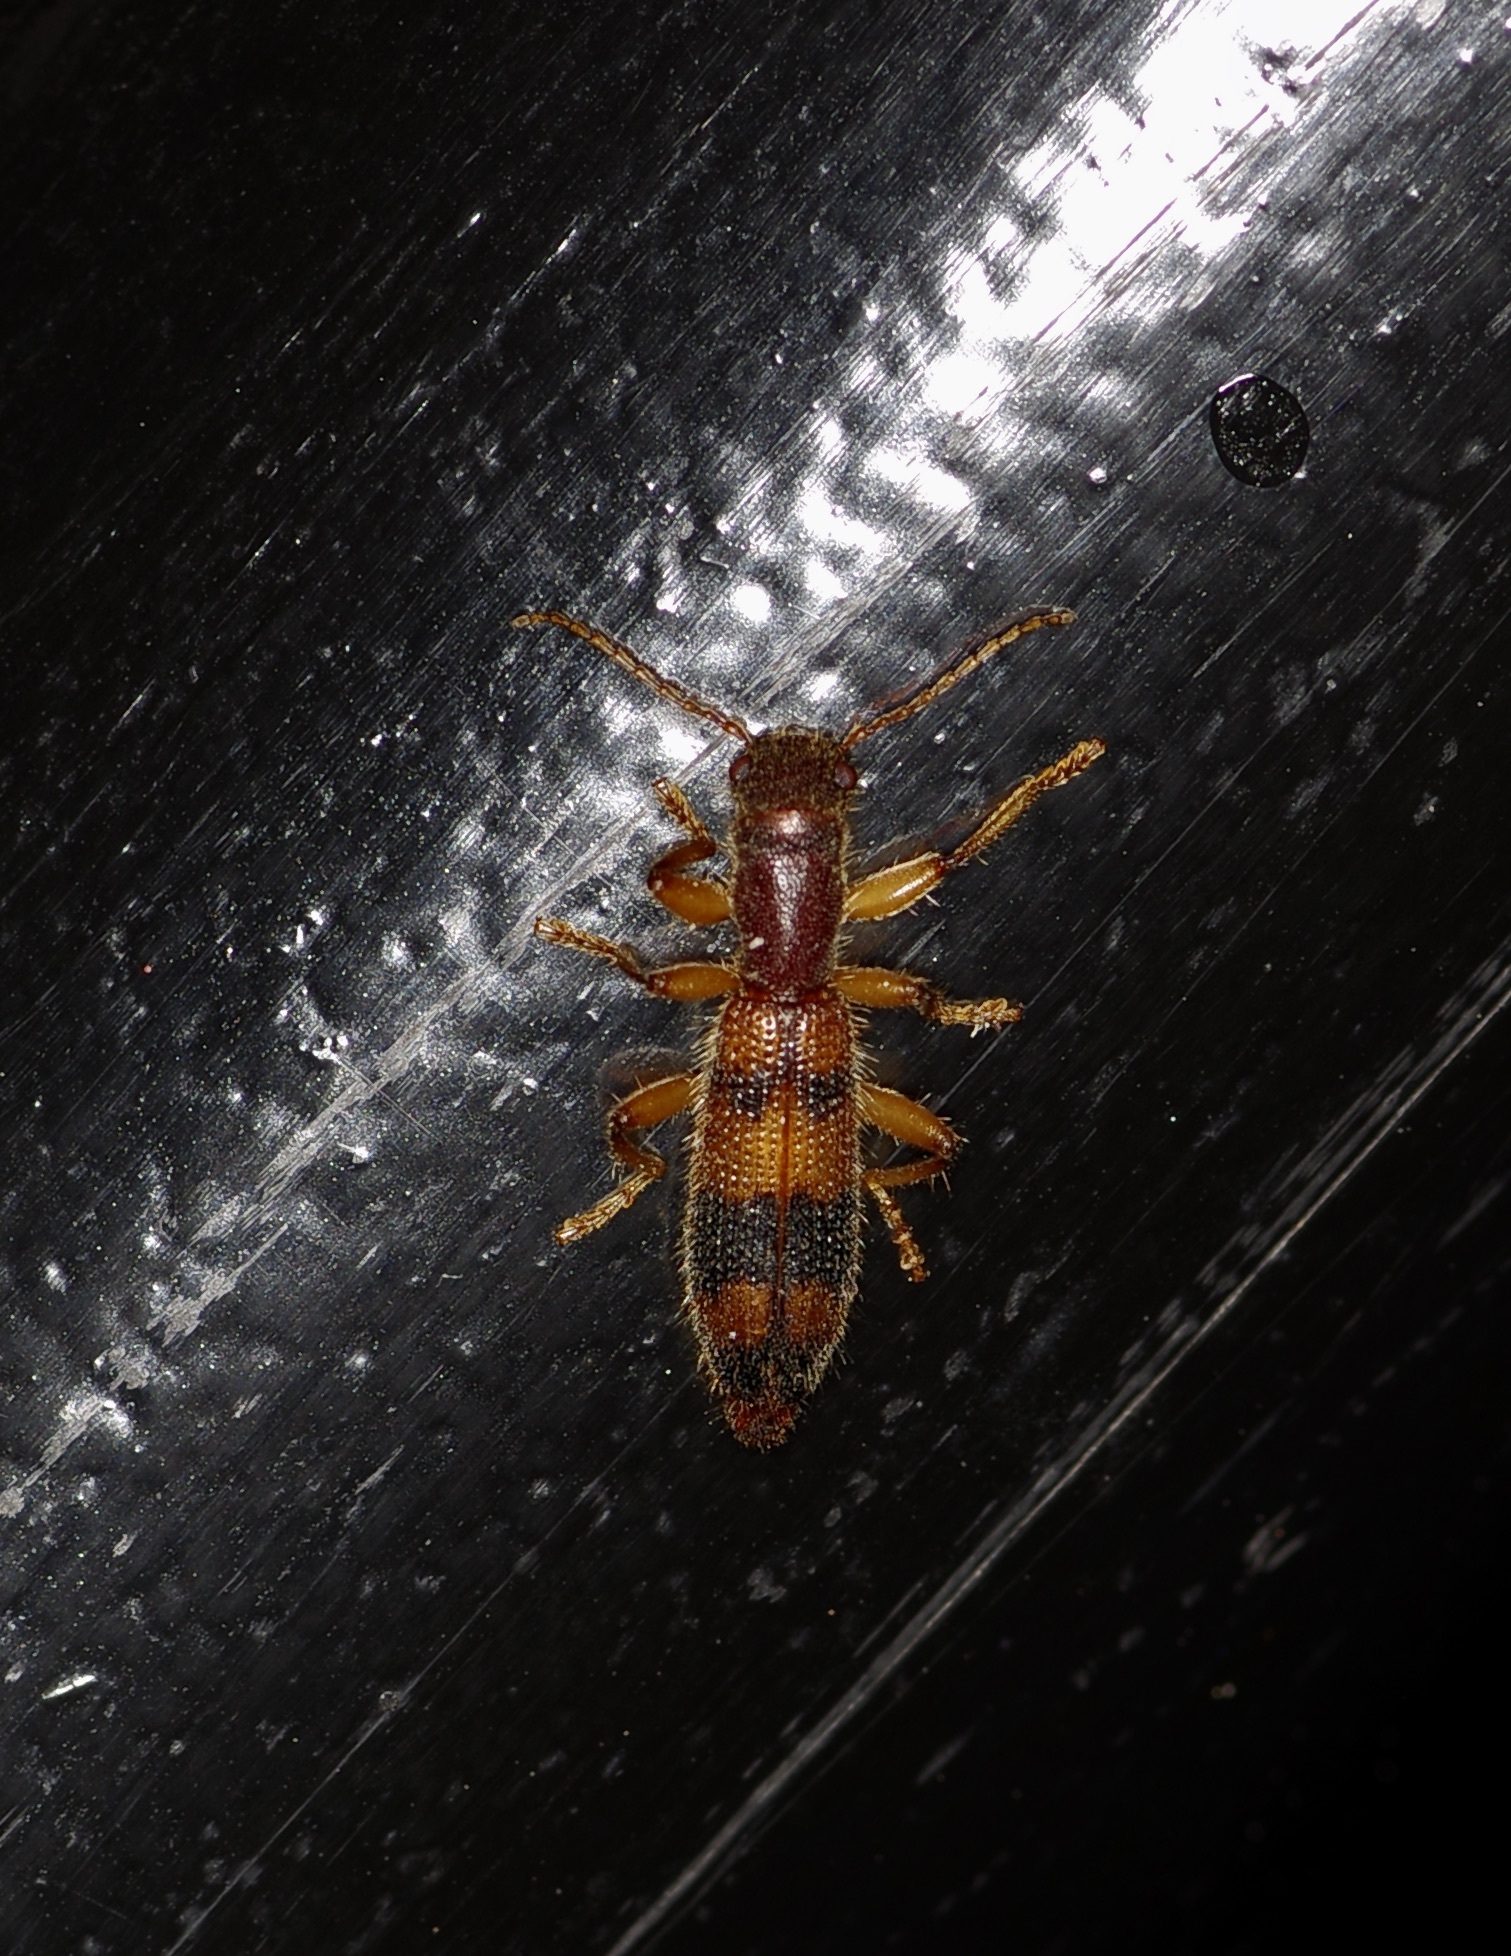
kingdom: Animalia
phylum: Arthropoda
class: Insecta
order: Coleoptera
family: Cleridae
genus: Cymatodera
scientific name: Cymatodera balteata
